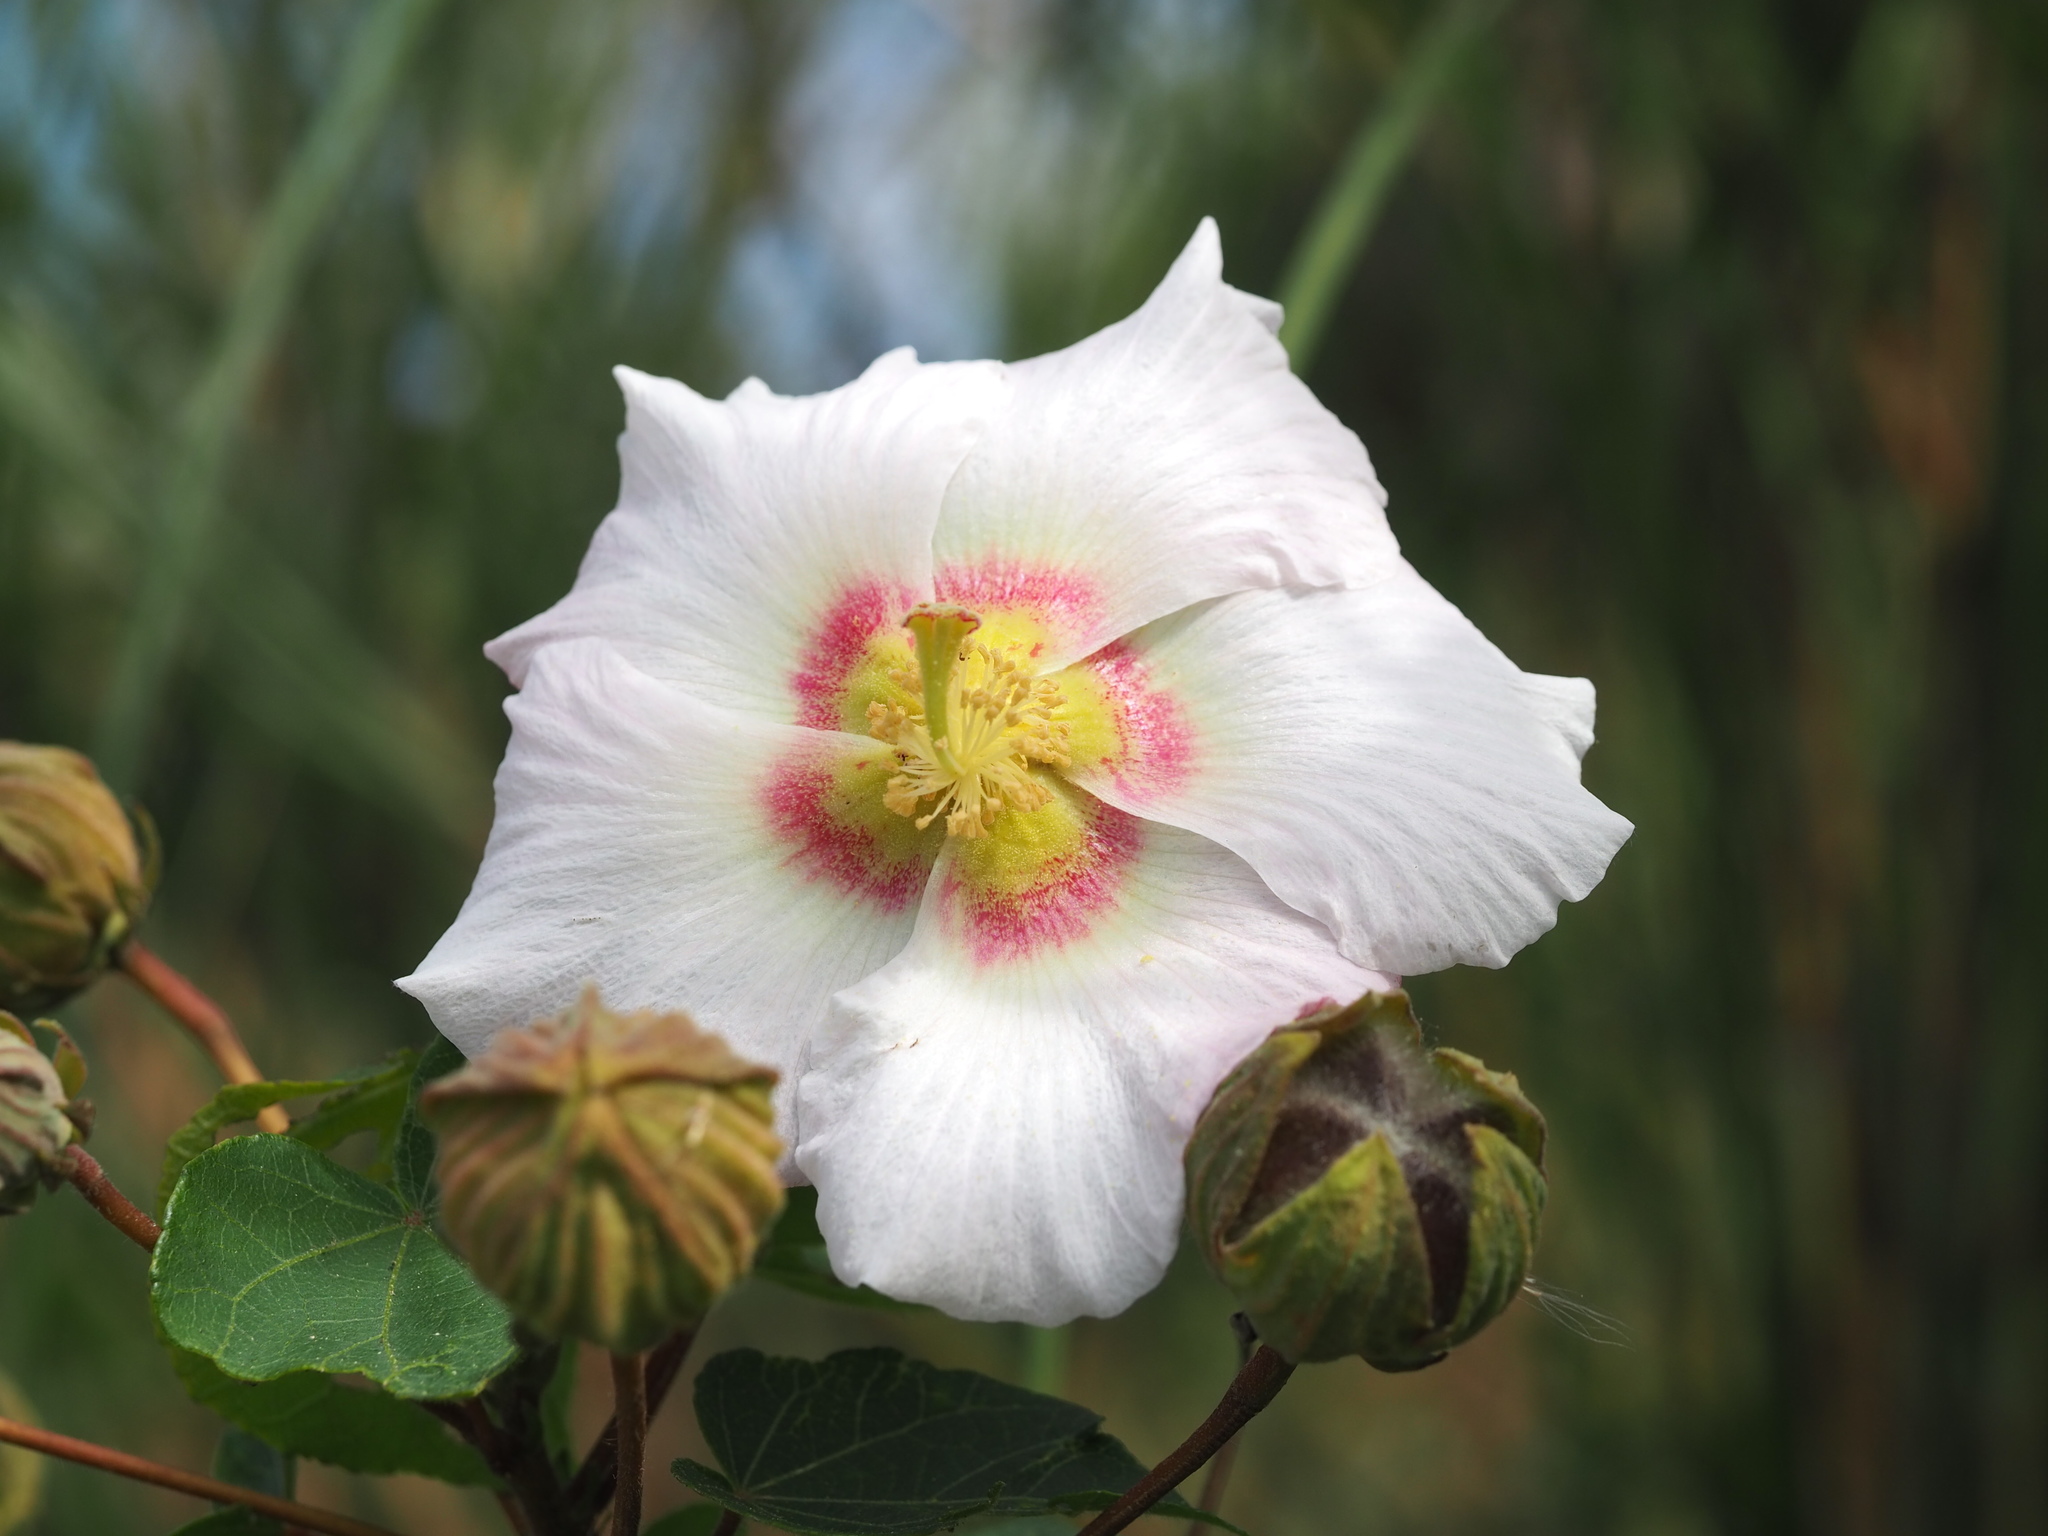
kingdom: Plantae
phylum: Tracheophyta
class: Magnoliopsida
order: Malvales
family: Malvaceae
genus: Hibiscus
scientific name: Hibiscus taiwanensis
